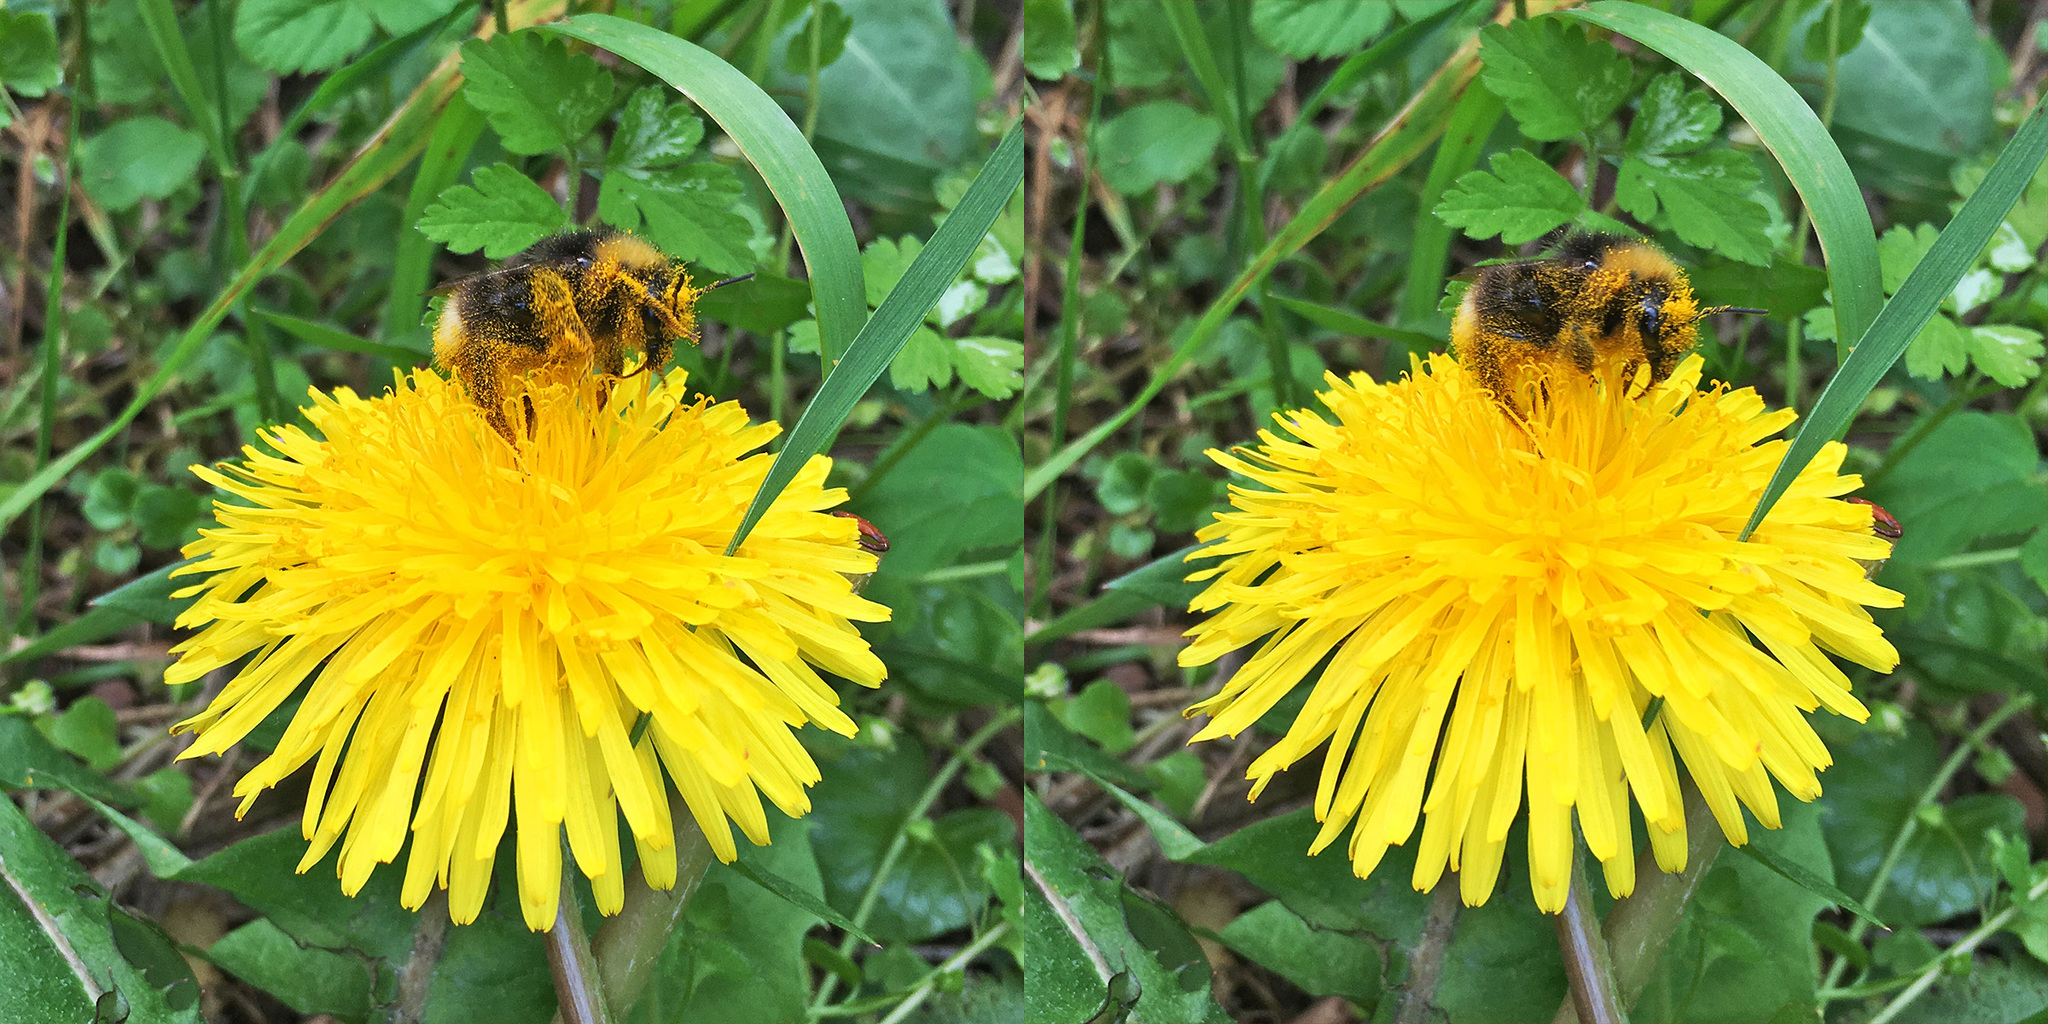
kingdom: Animalia
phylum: Arthropoda
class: Insecta
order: Hymenoptera
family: Apidae
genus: Bombus
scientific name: Bombus bohemicus
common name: Gypsy cuckoo bee
